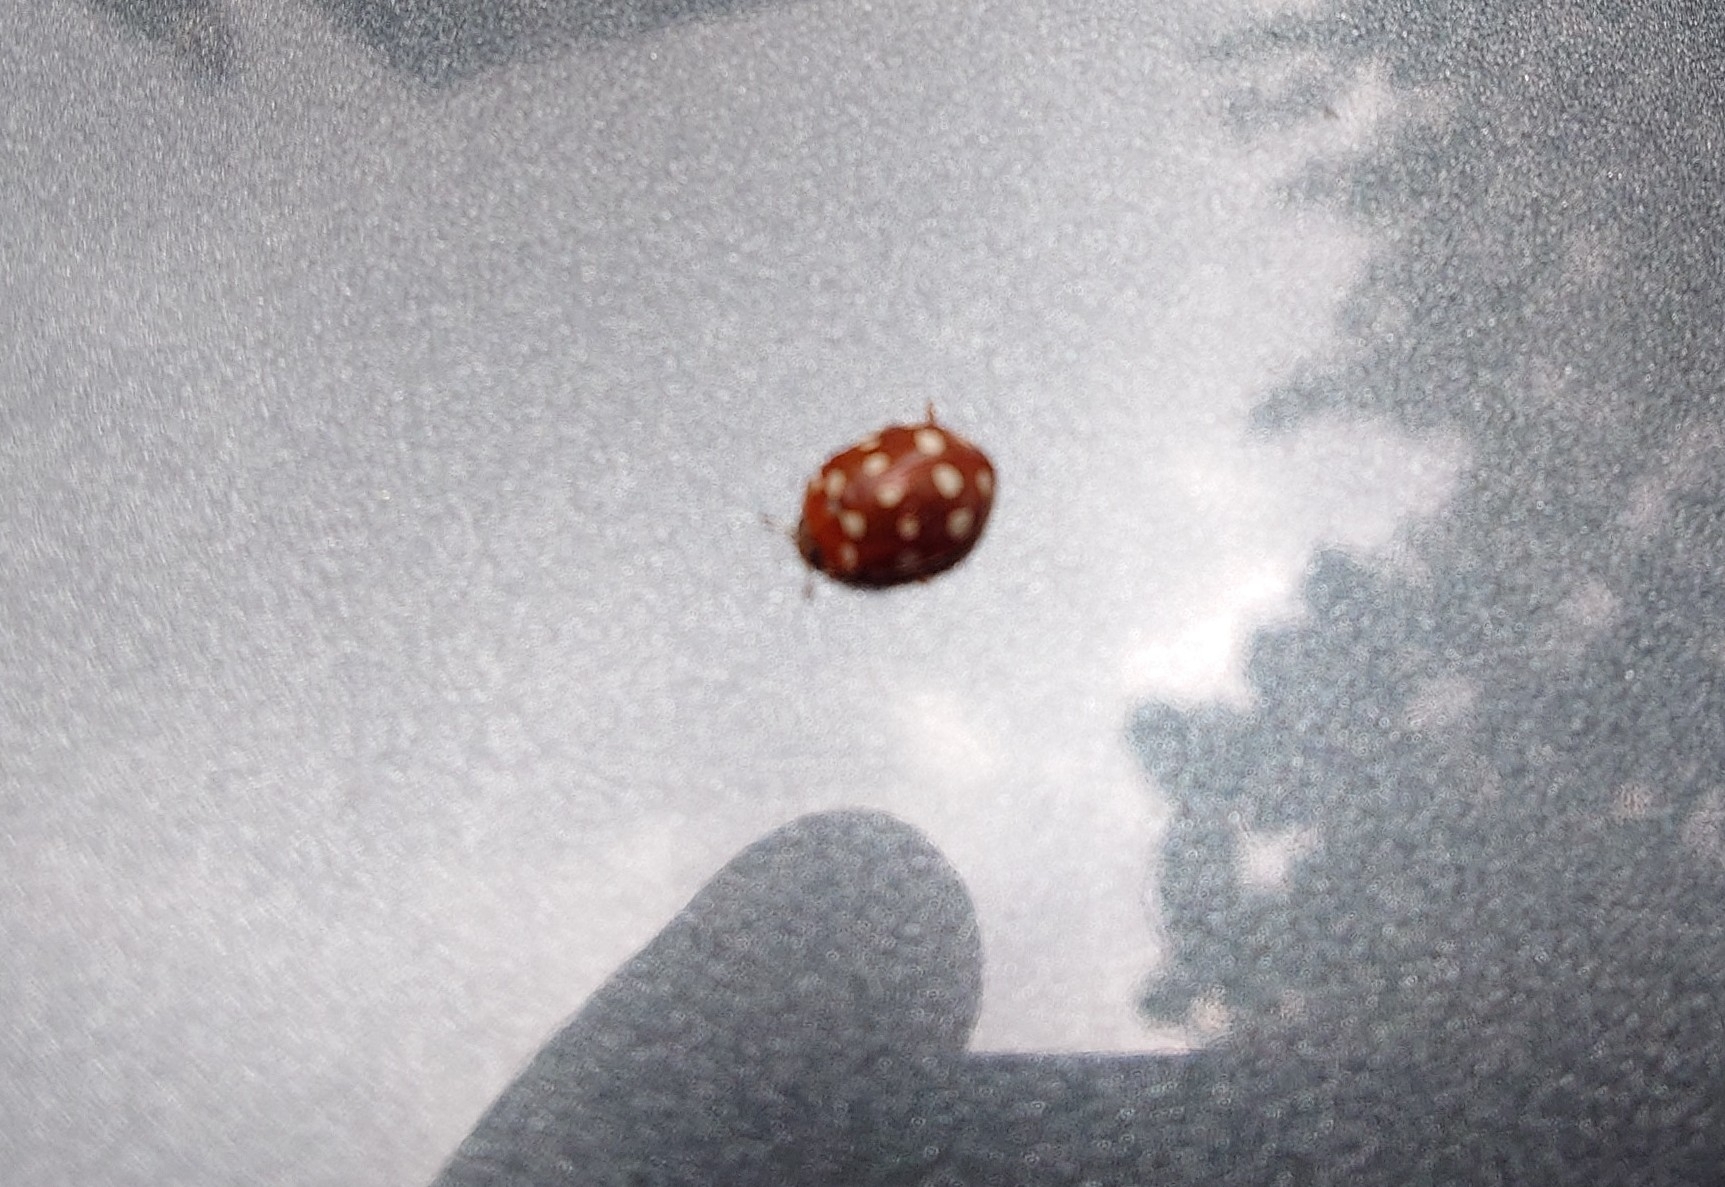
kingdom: Animalia
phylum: Arthropoda
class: Insecta
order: Coleoptera
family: Coccinellidae
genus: Calvia
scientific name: Calvia quatuordecimguttata
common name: Cream-spot ladybird
